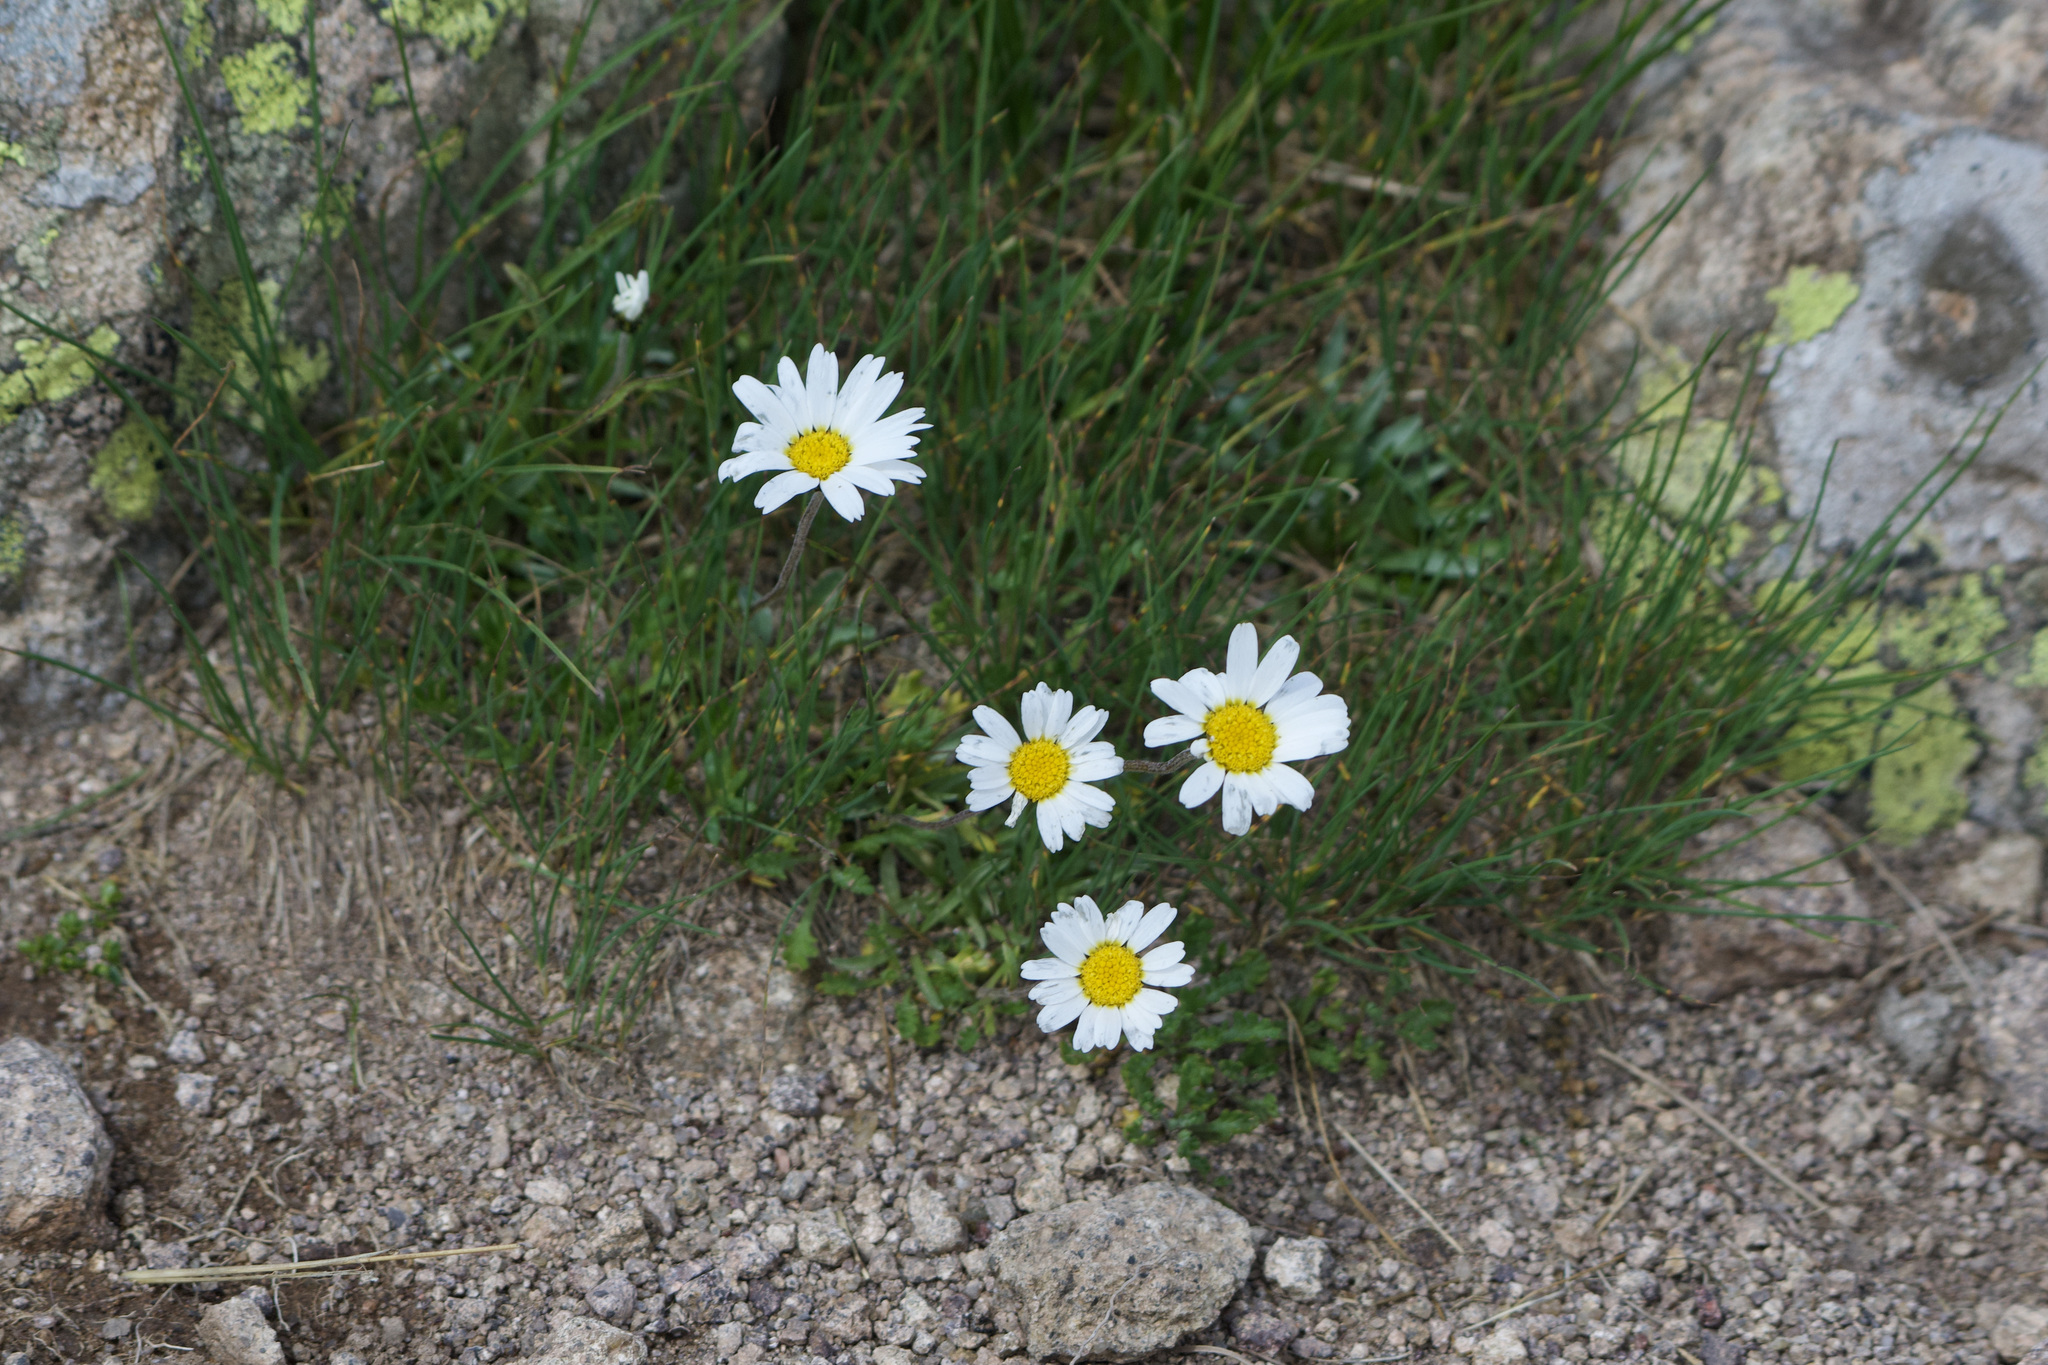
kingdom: Plantae
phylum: Tracheophyta
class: Magnoliopsida
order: Asterales
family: Asteraceae
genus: Leucanthemopsis
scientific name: Leucanthemopsis alpina
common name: Alpine moon daisy
